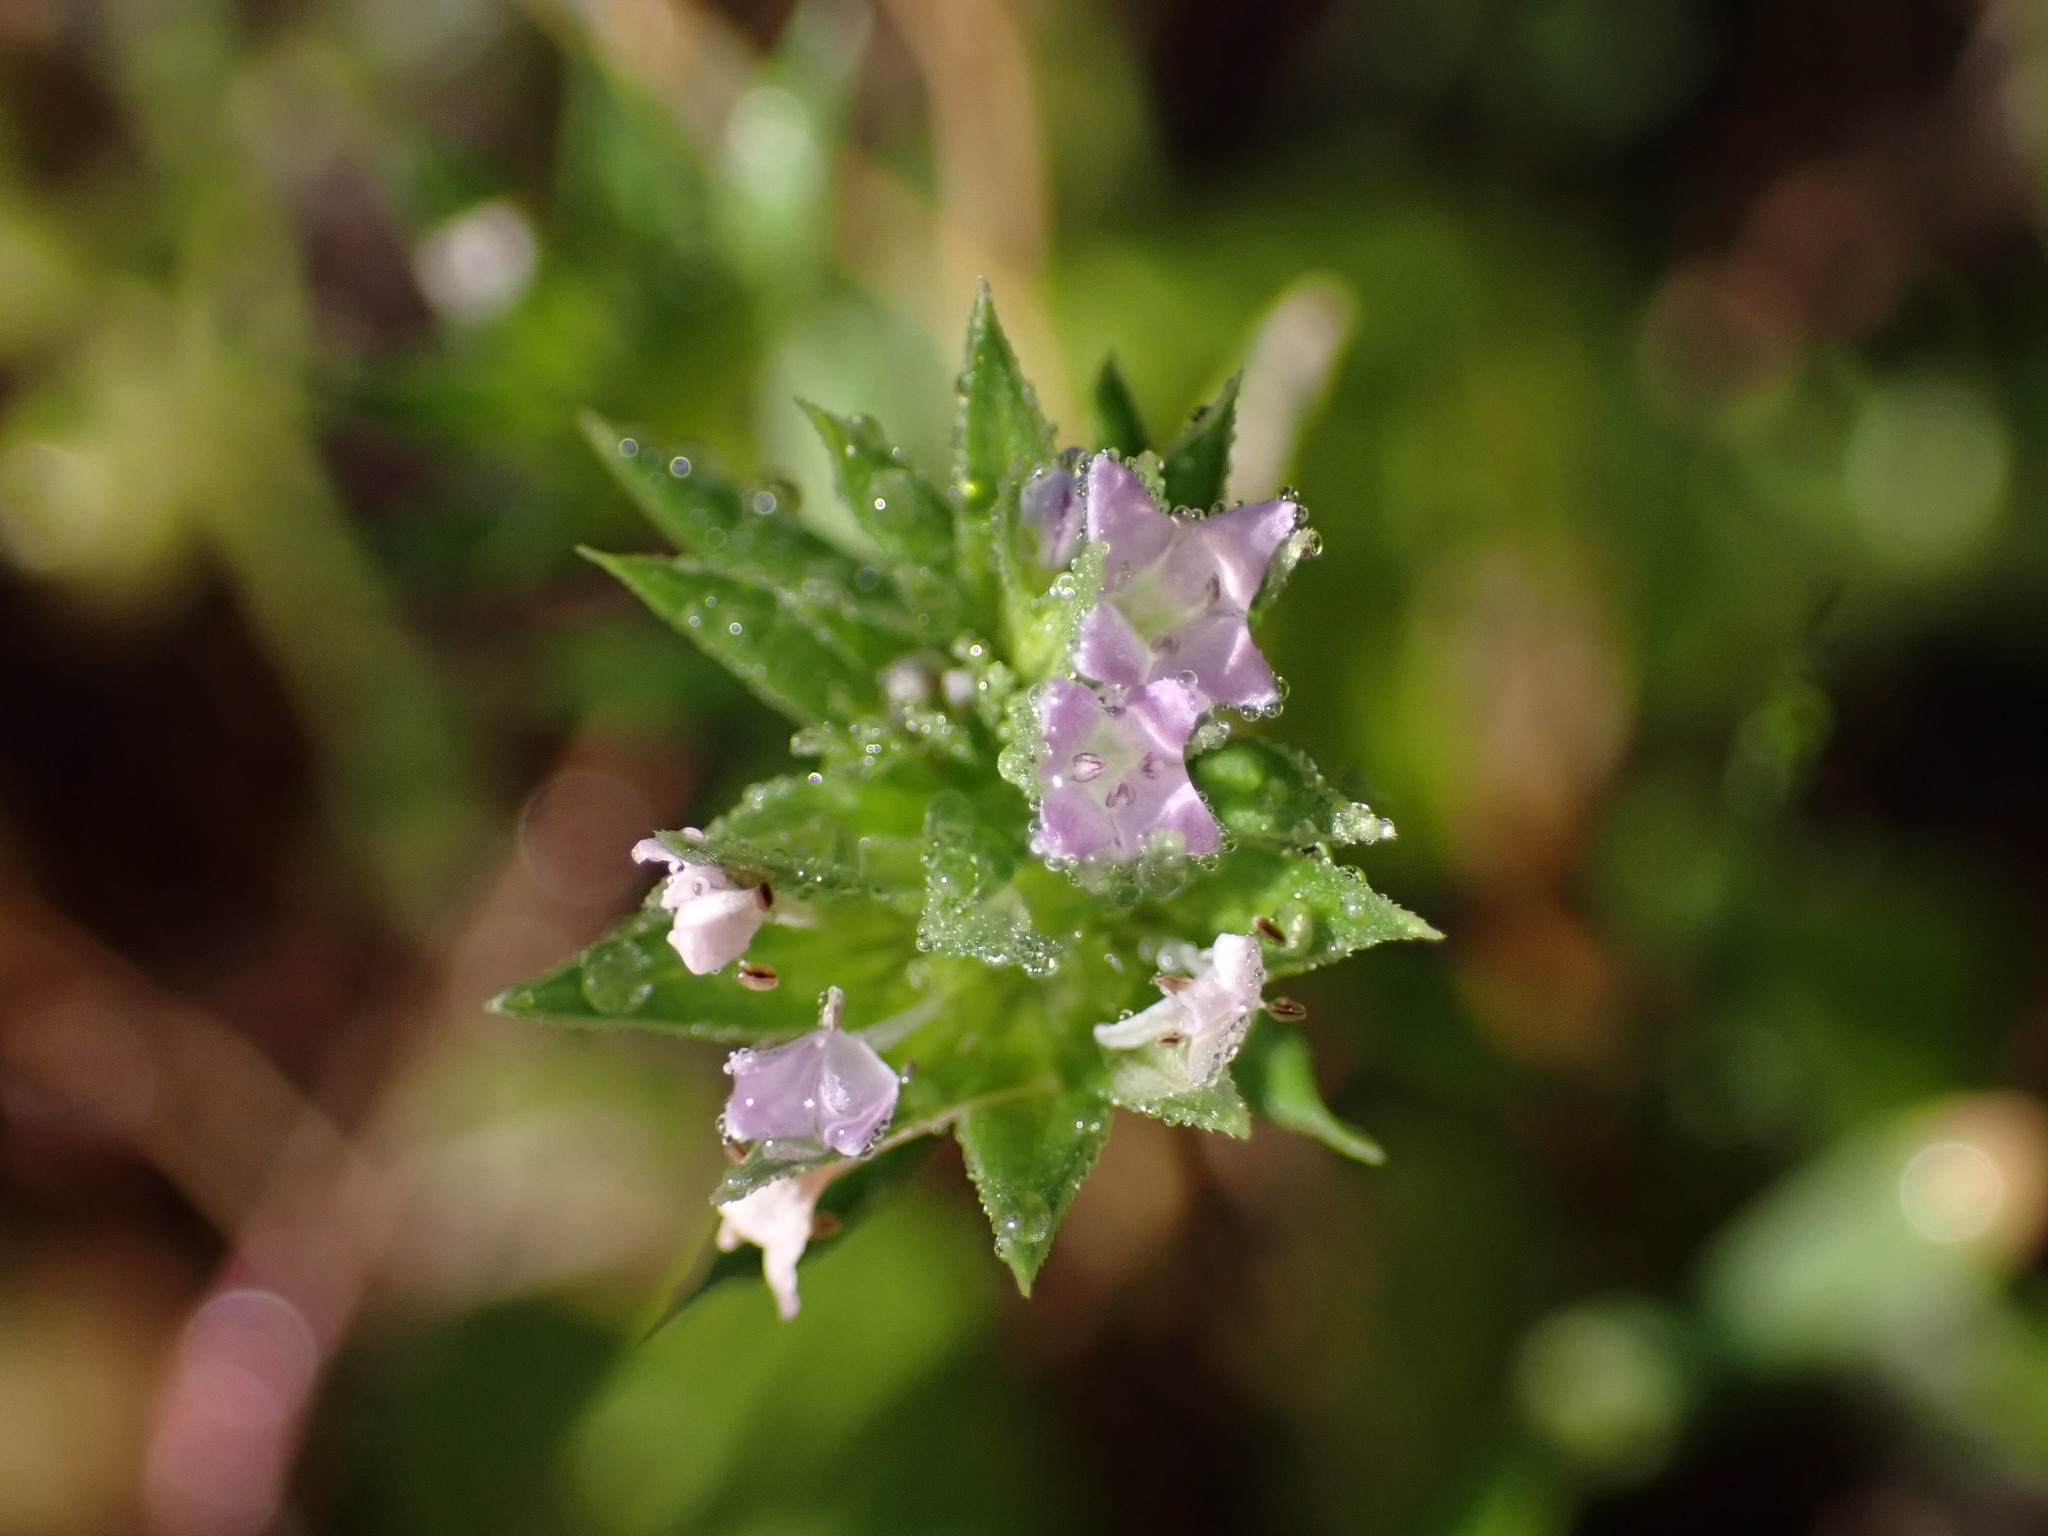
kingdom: Plantae
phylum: Tracheophyta
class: Magnoliopsida
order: Gentianales
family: Rubiaceae
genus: Sherardia
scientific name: Sherardia arvensis
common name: Field madder
